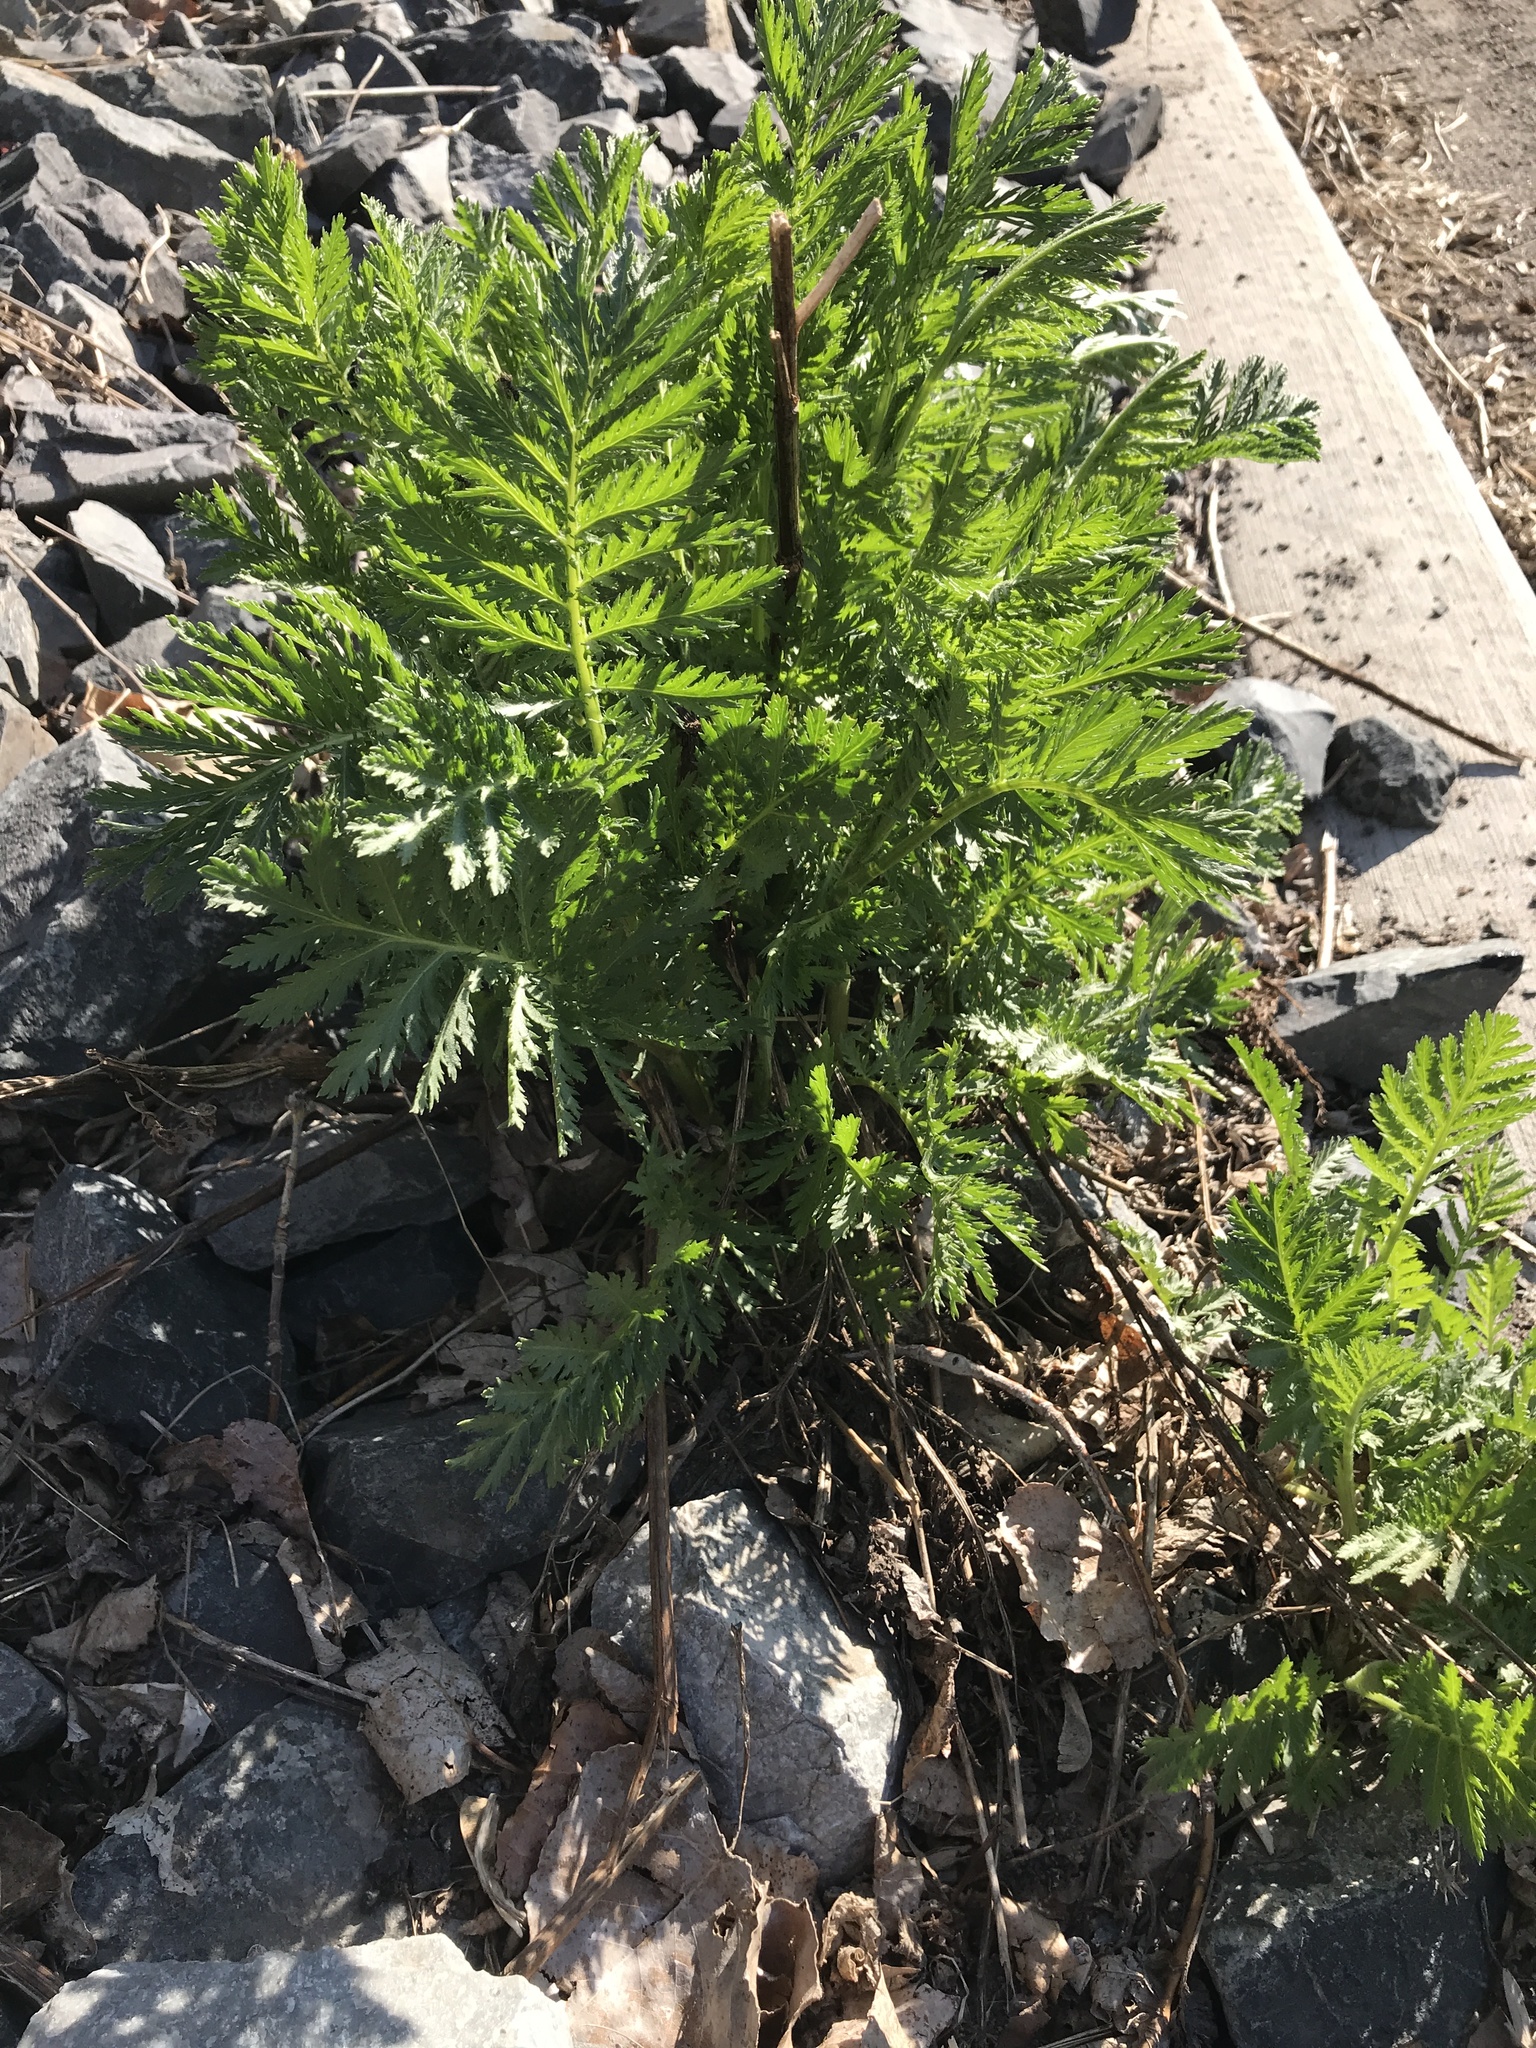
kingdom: Plantae
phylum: Tracheophyta
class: Magnoliopsida
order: Asterales
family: Asteraceae
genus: Tanacetum
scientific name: Tanacetum vulgare
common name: Common tansy
